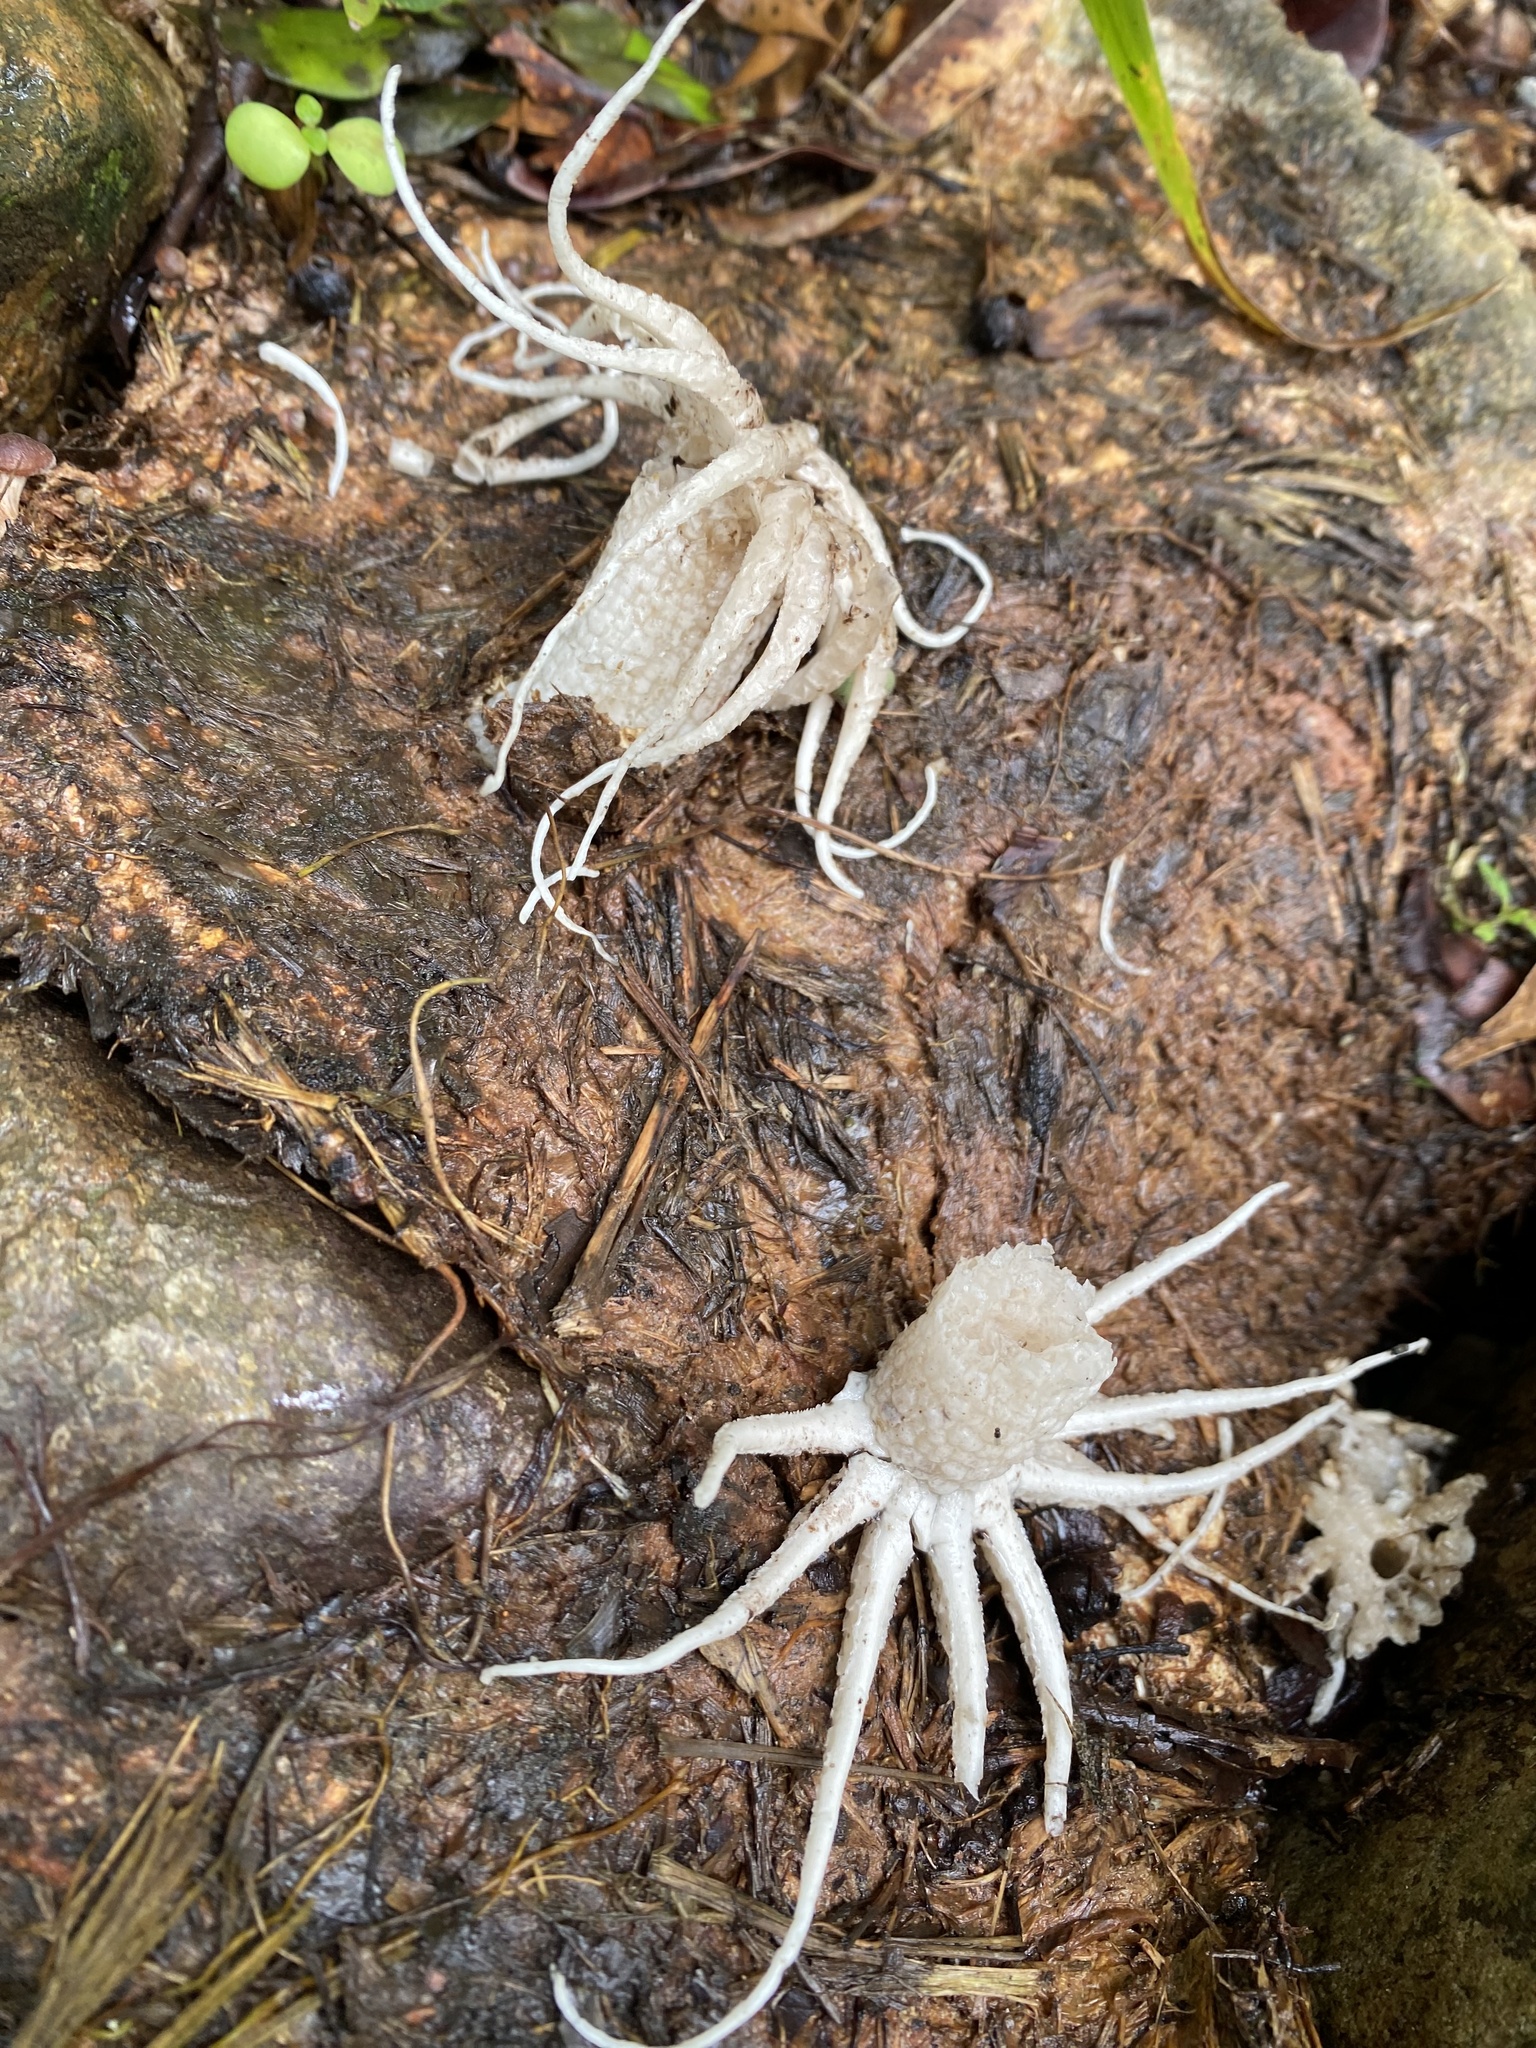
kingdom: Fungi
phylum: Basidiomycota
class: Agaricomycetes
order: Phallales
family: Phallaceae
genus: Lysurus
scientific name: Lysurus arachnoideus
